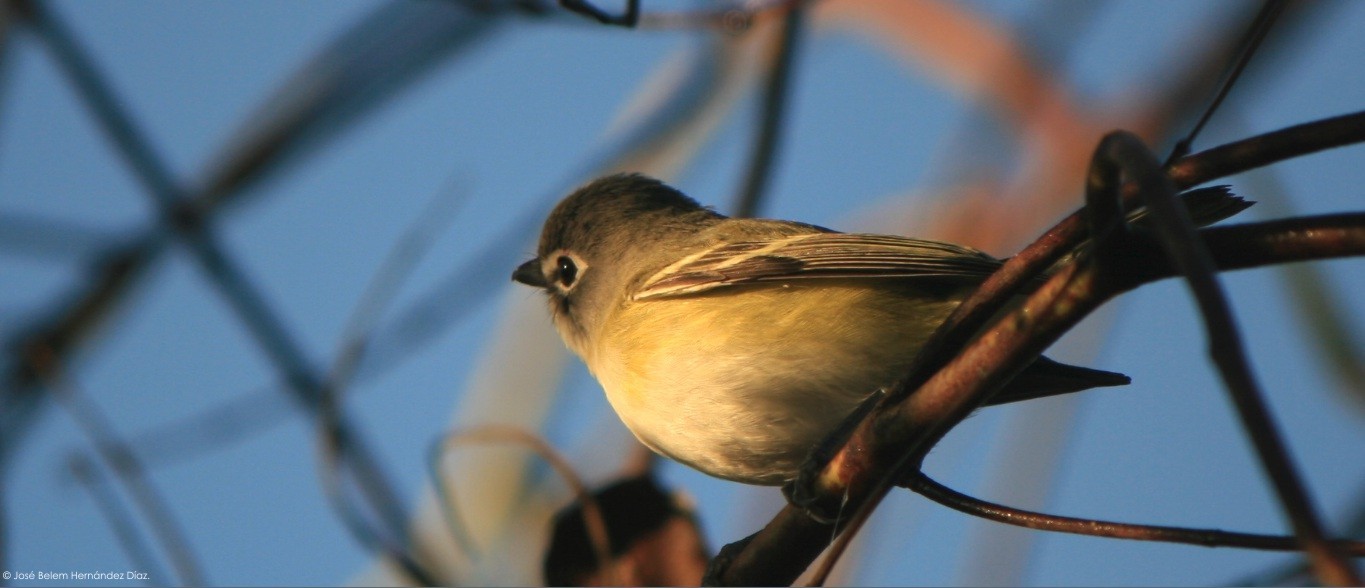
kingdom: Animalia
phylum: Chordata
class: Aves
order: Passeriformes
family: Vireonidae
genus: Vireo
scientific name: Vireo solitarius
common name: Blue-headed vireo
